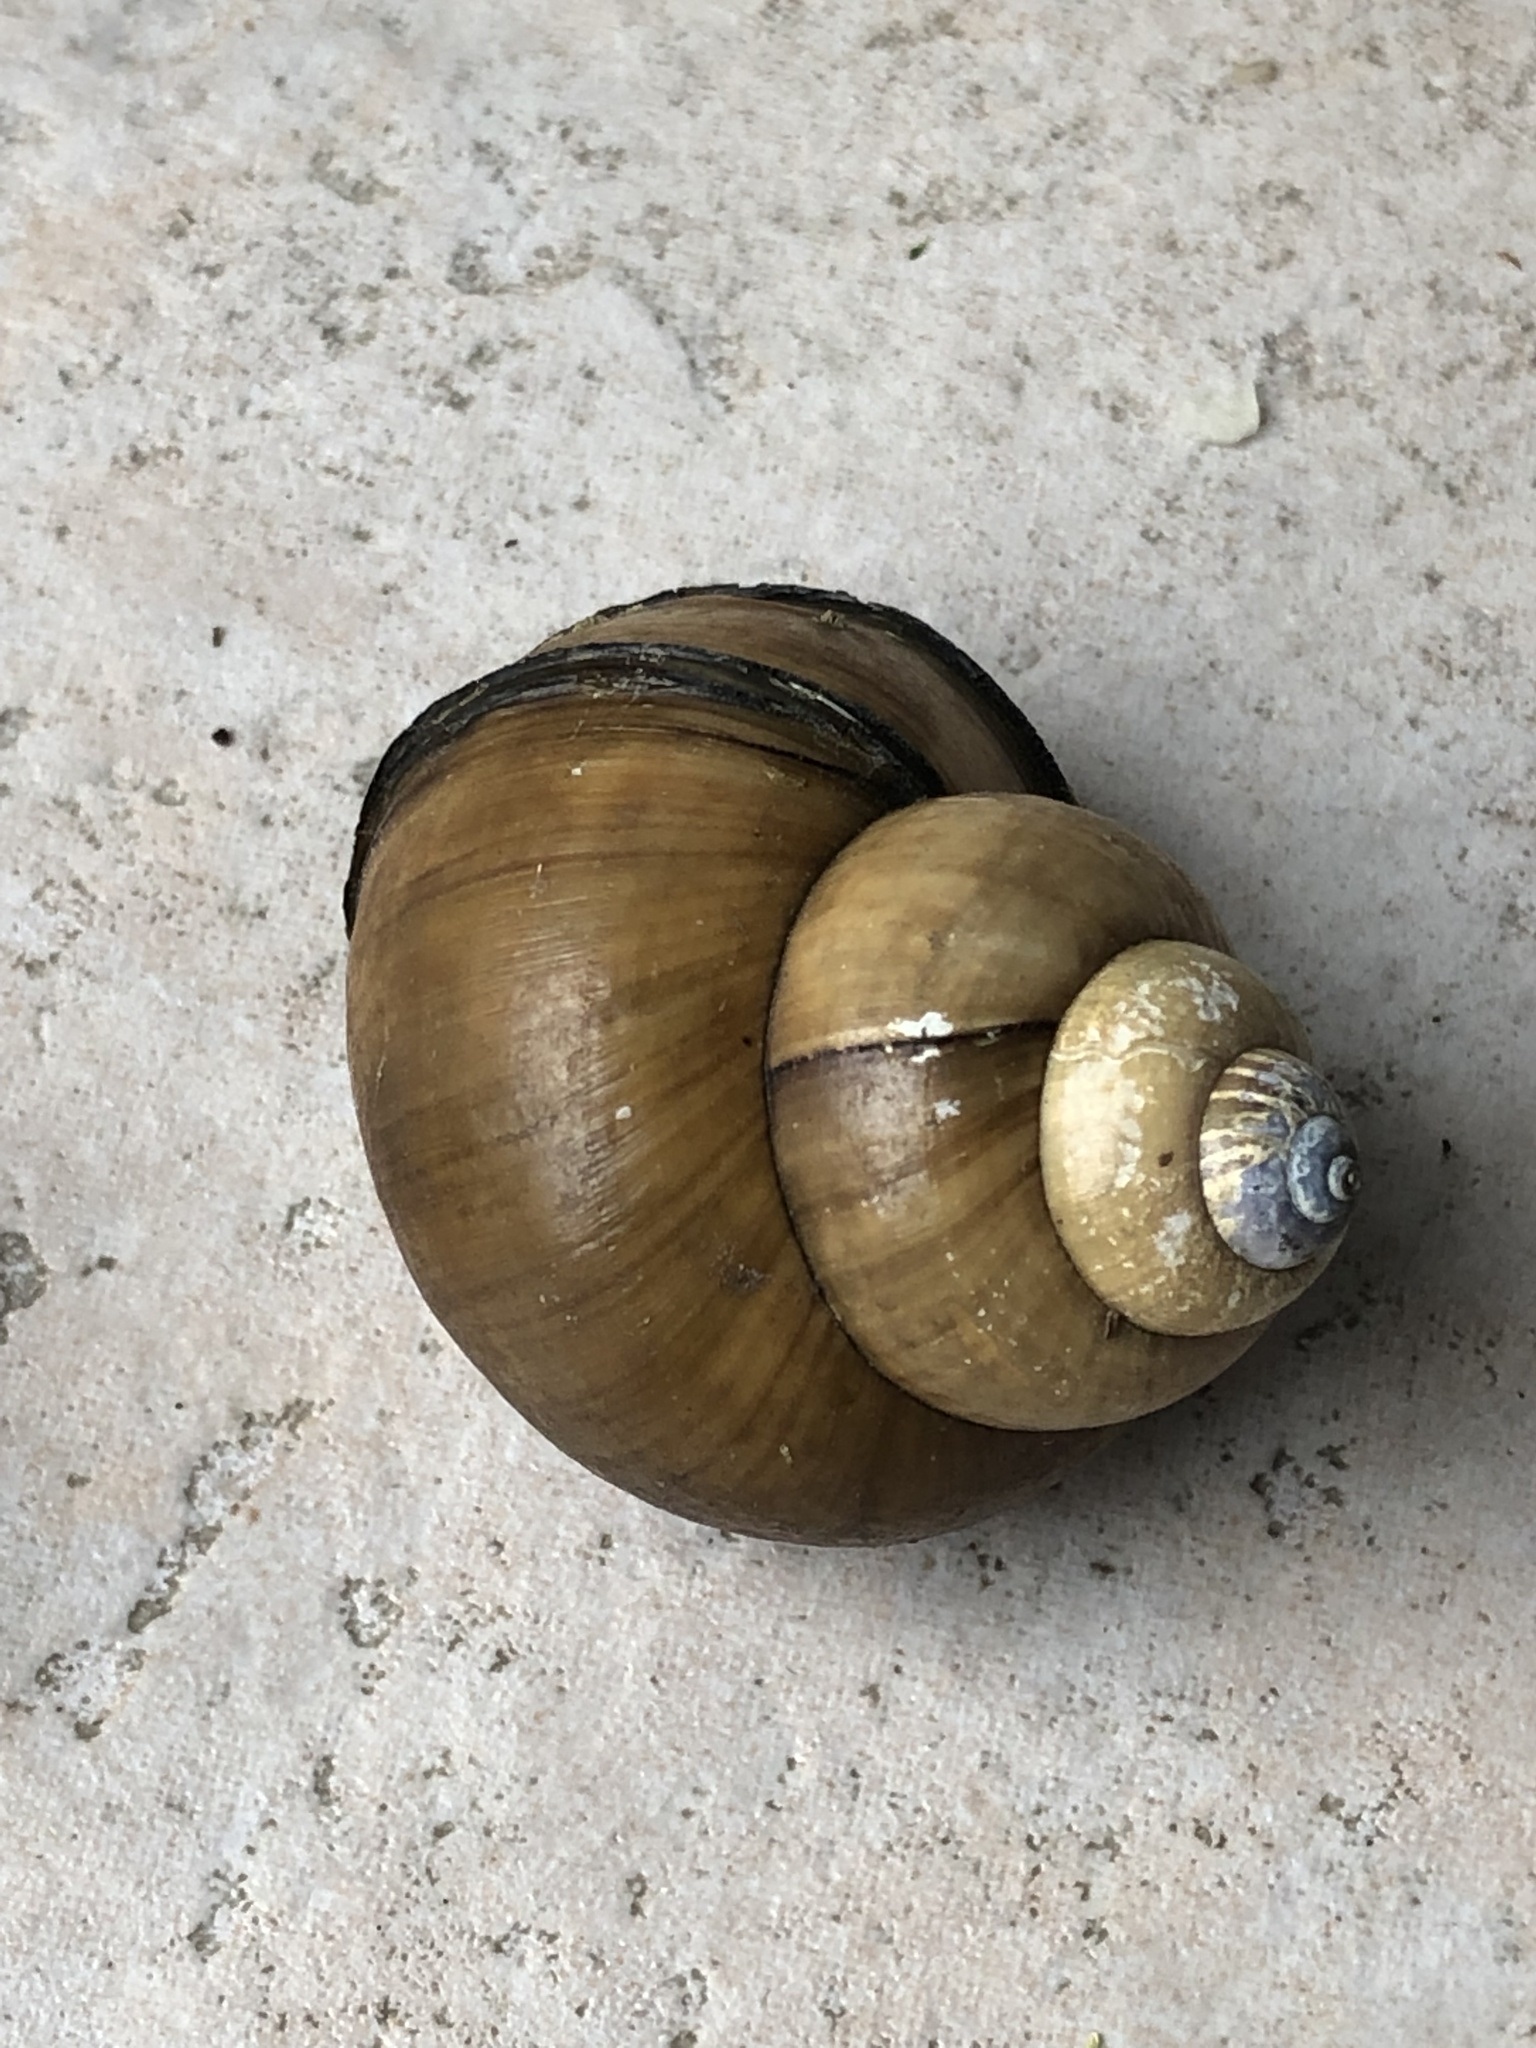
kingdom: Animalia
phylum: Mollusca
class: Gastropoda
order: Architaenioglossa
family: Viviparidae
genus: Cipangopaludina
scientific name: Cipangopaludina chinensis
